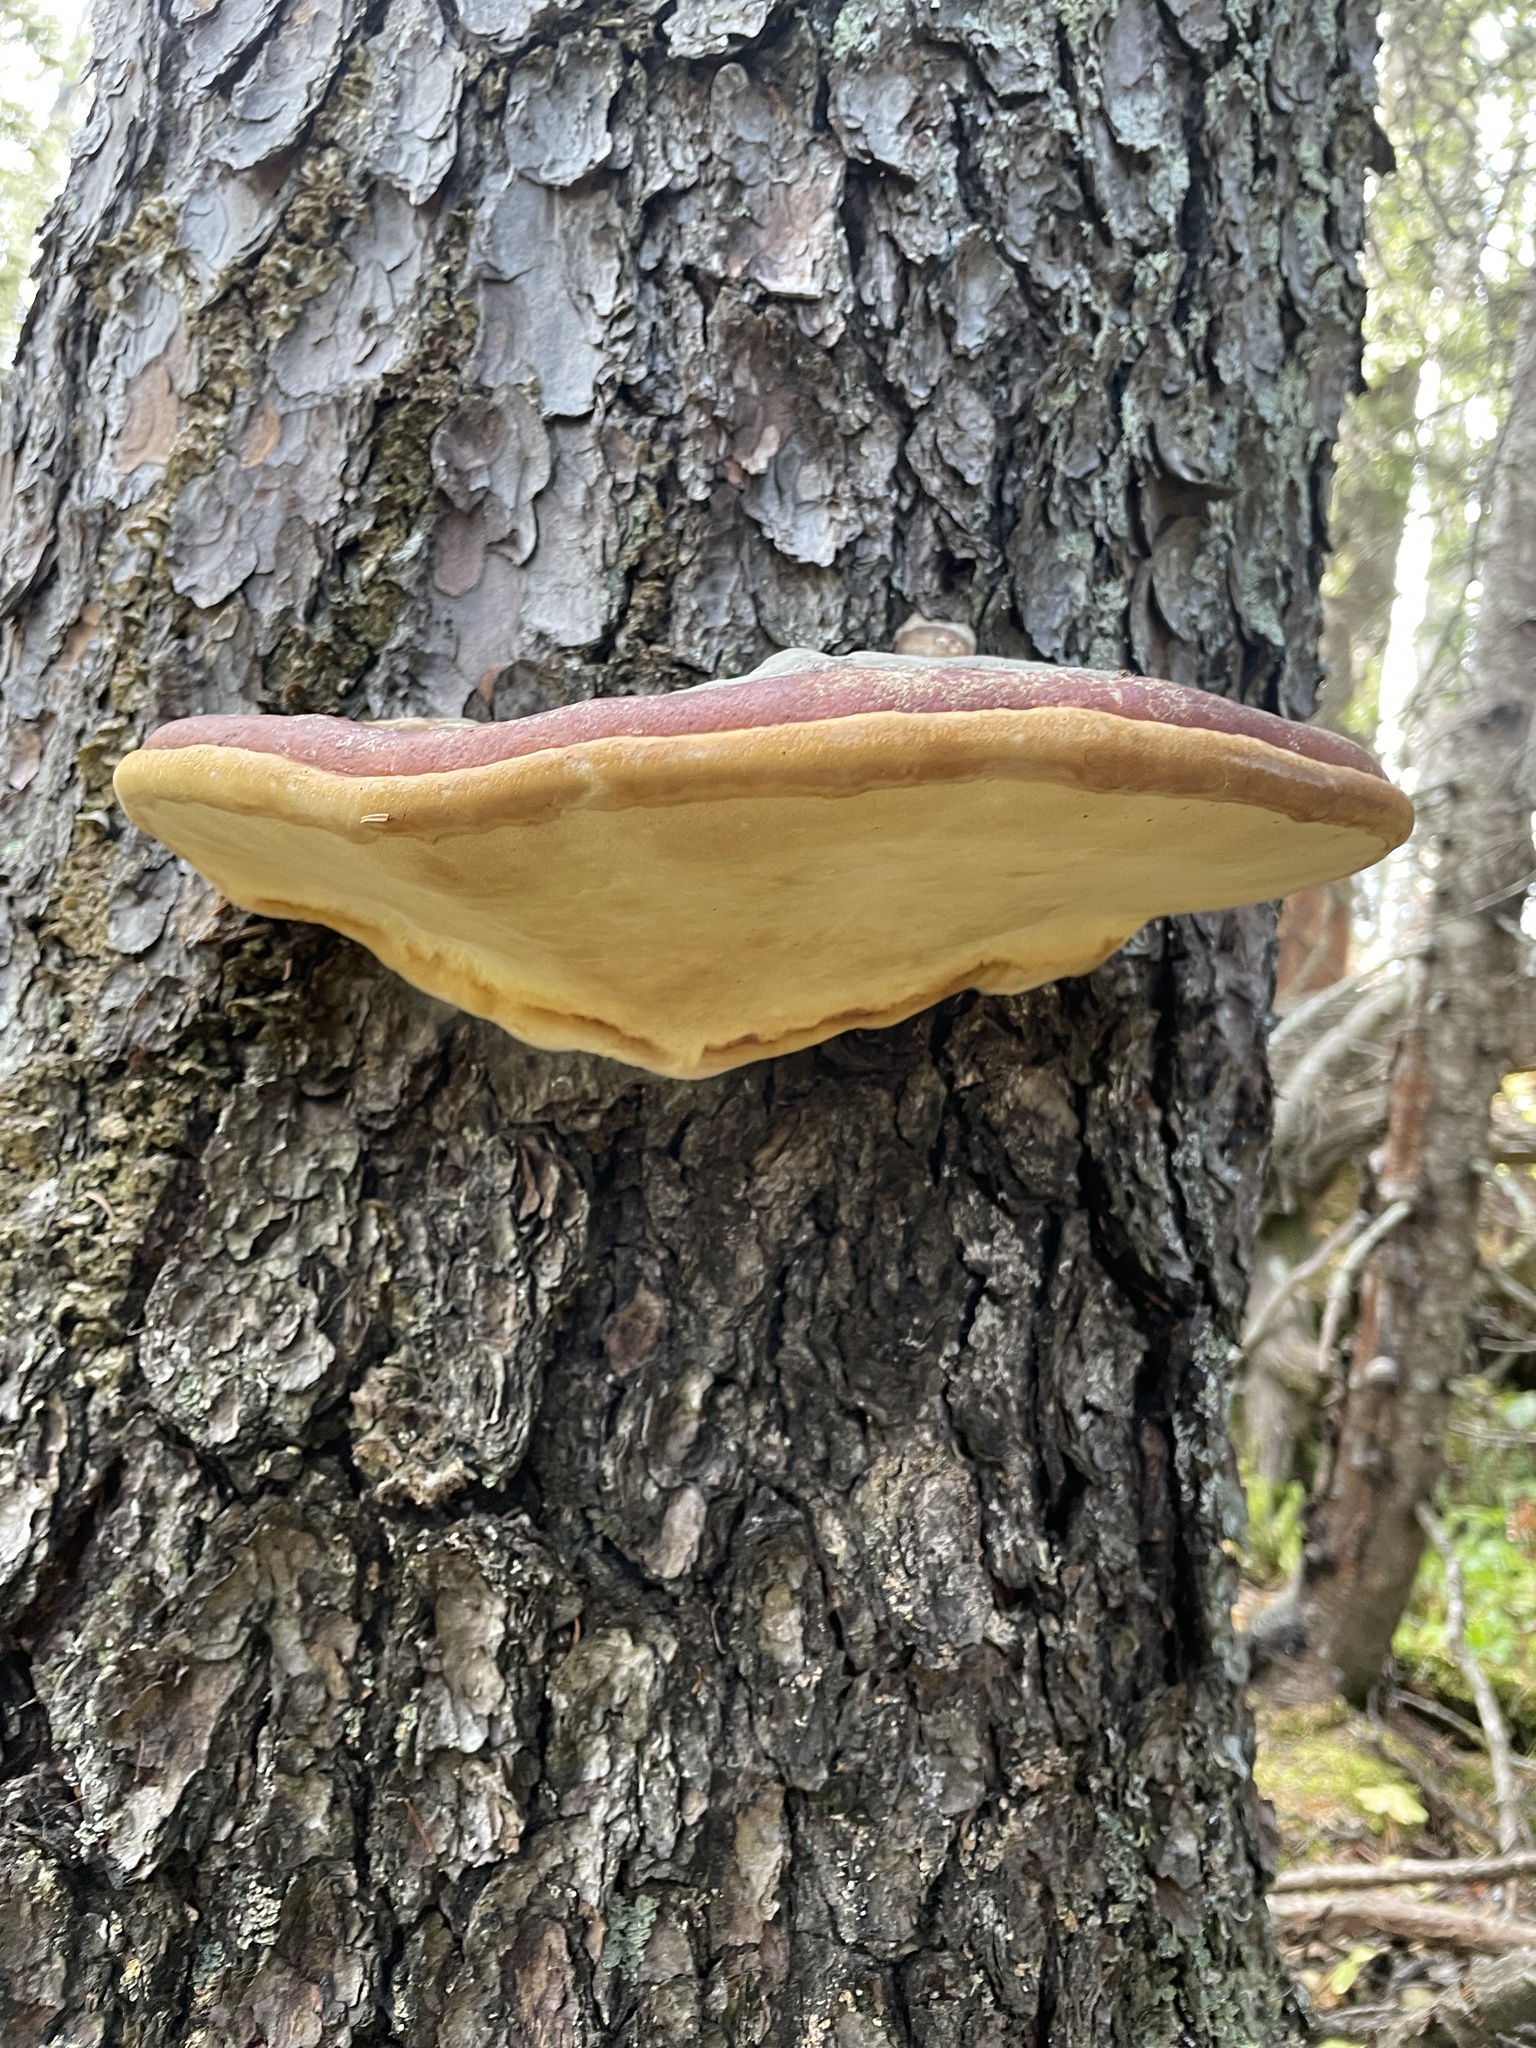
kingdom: Fungi
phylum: Basidiomycota
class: Agaricomycetes
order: Polyporales
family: Fomitopsidaceae
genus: Fomitopsis
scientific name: Fomitopsis mounceae
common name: Northern red belt
